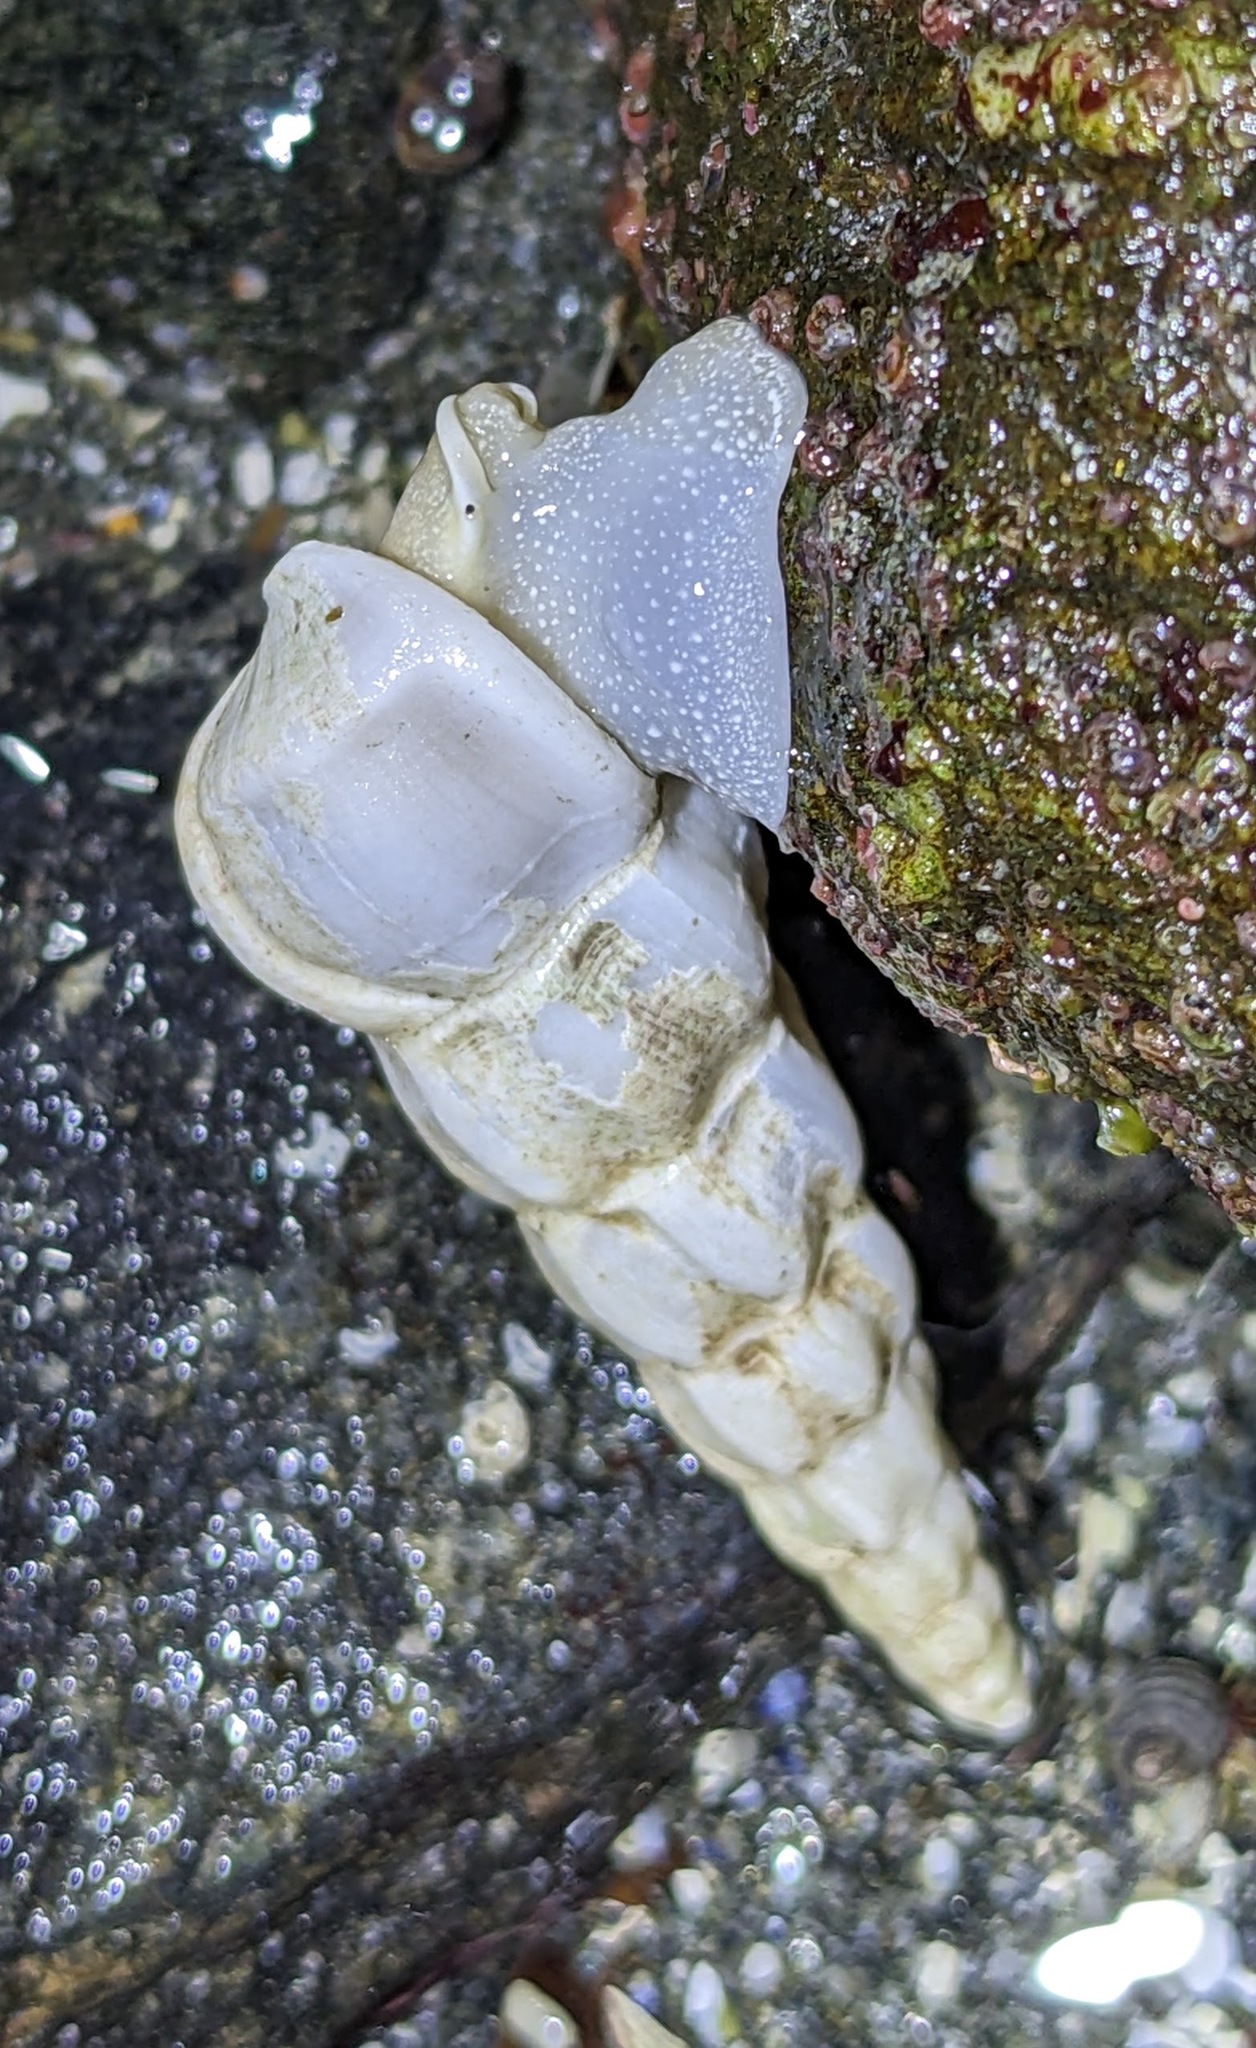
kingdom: Animalia
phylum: Mollusca
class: Gastropoda
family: Epitoniidae
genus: Opalia
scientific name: Opalia wroblewskyi
